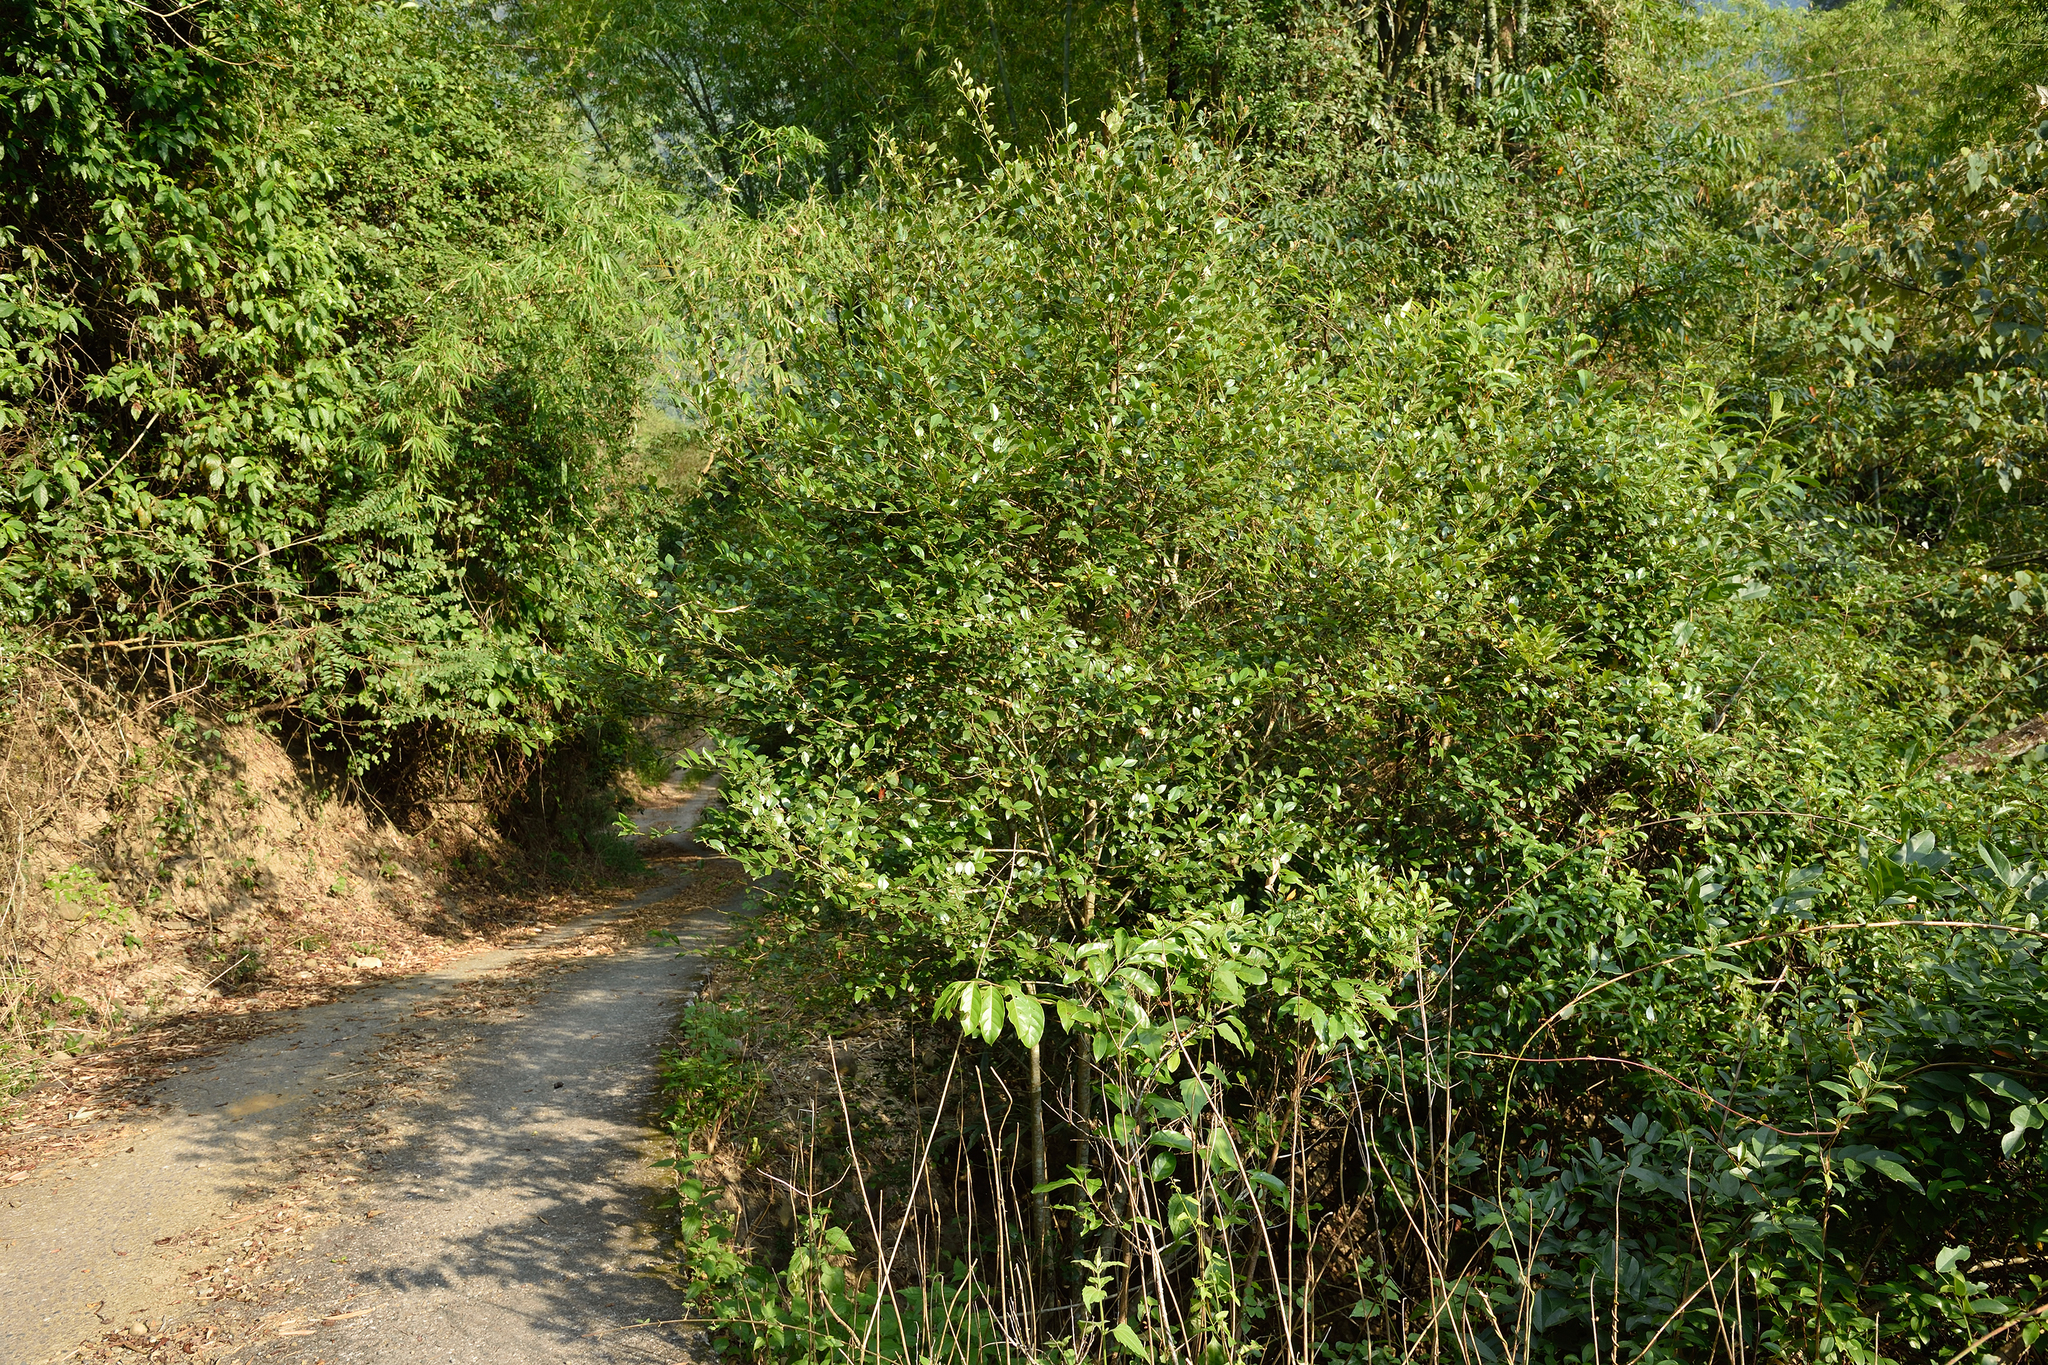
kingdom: Plantae
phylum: Tracheophyta
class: Magnoliopsida
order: Laurales
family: Lauraceae
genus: Lindera
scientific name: Lindera akoensis
